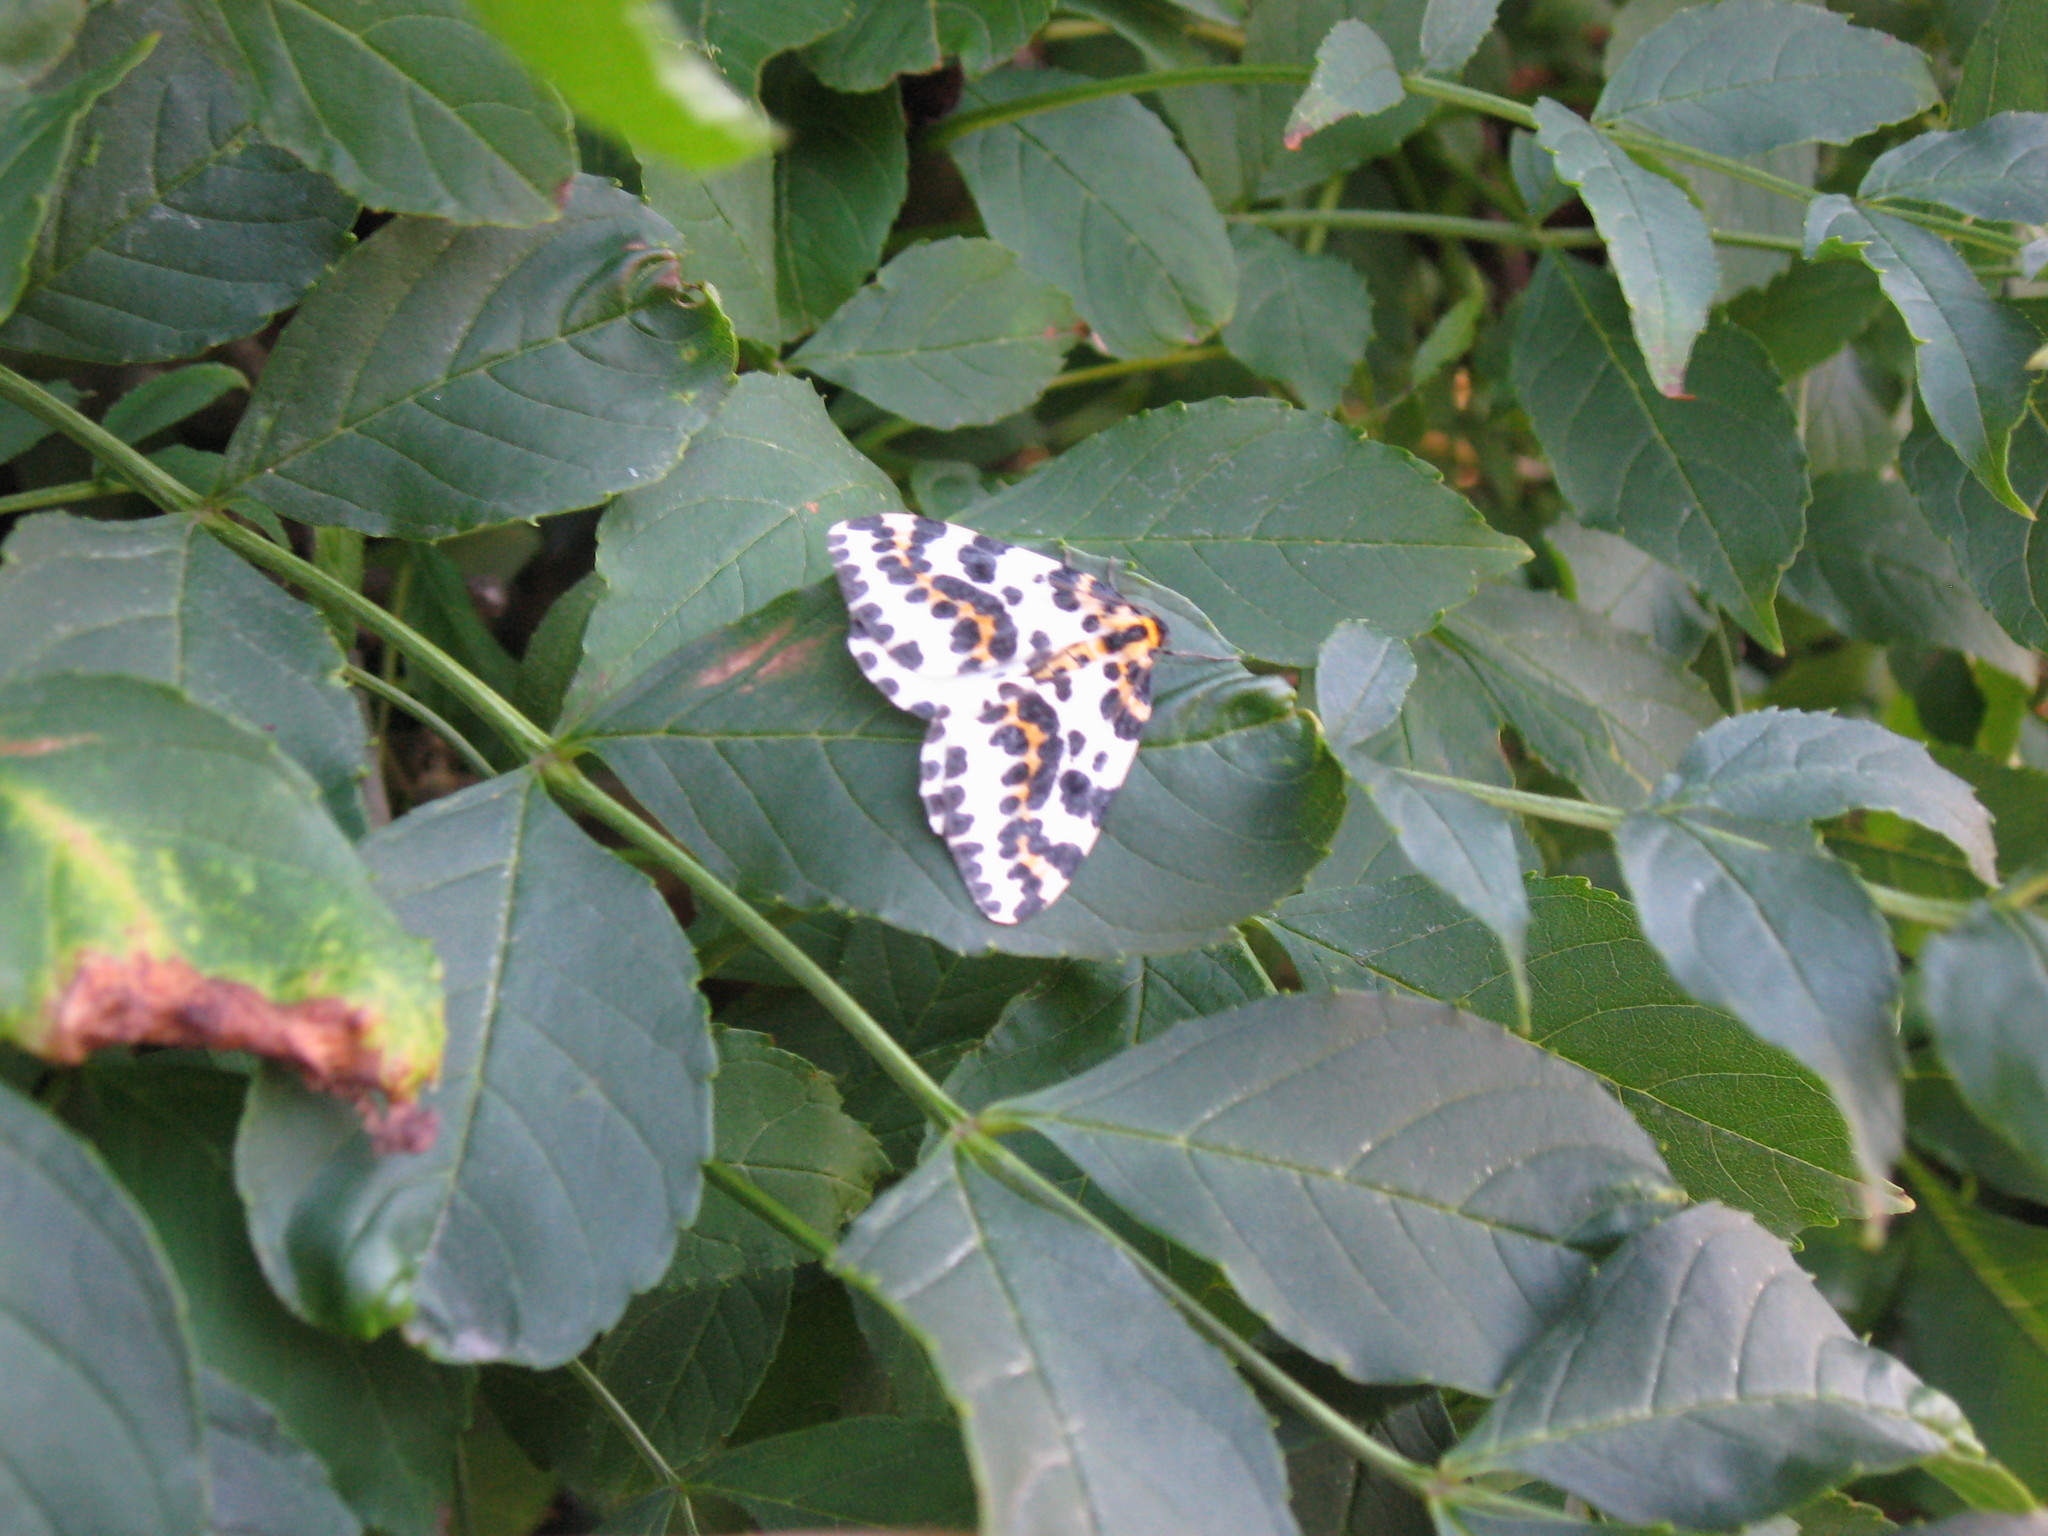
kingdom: Animalia
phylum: Arthropoda
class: Insecta
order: Lepidoptera
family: Geometridae
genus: Abraxas
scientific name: Abraxas grossulariata
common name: Magpie
